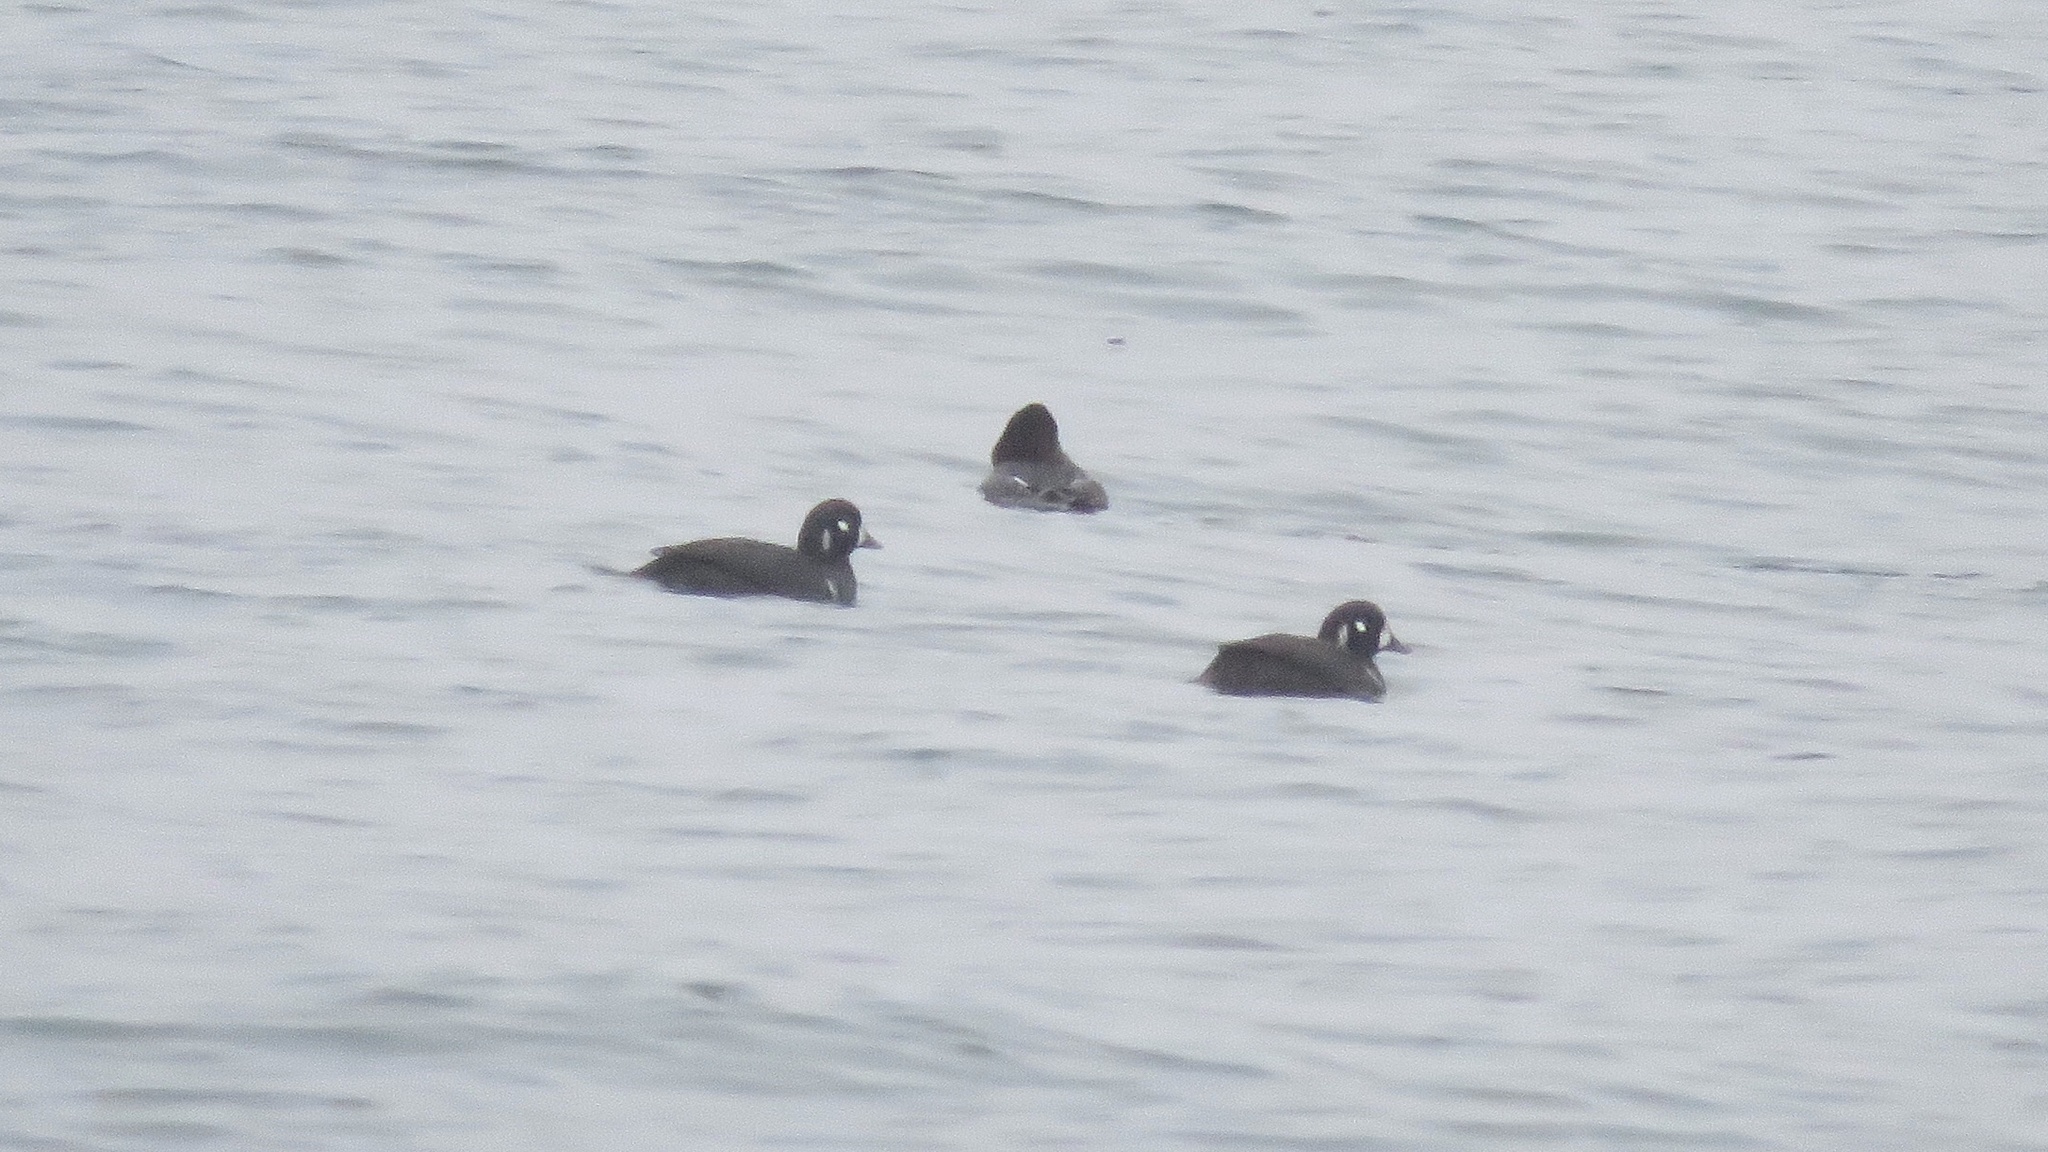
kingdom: Animalia
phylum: Chordata
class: Aves
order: Anseriformes
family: Anatidae
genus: Histrionicus
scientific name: Histrionicus histrionicus
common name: Harlequin duck
